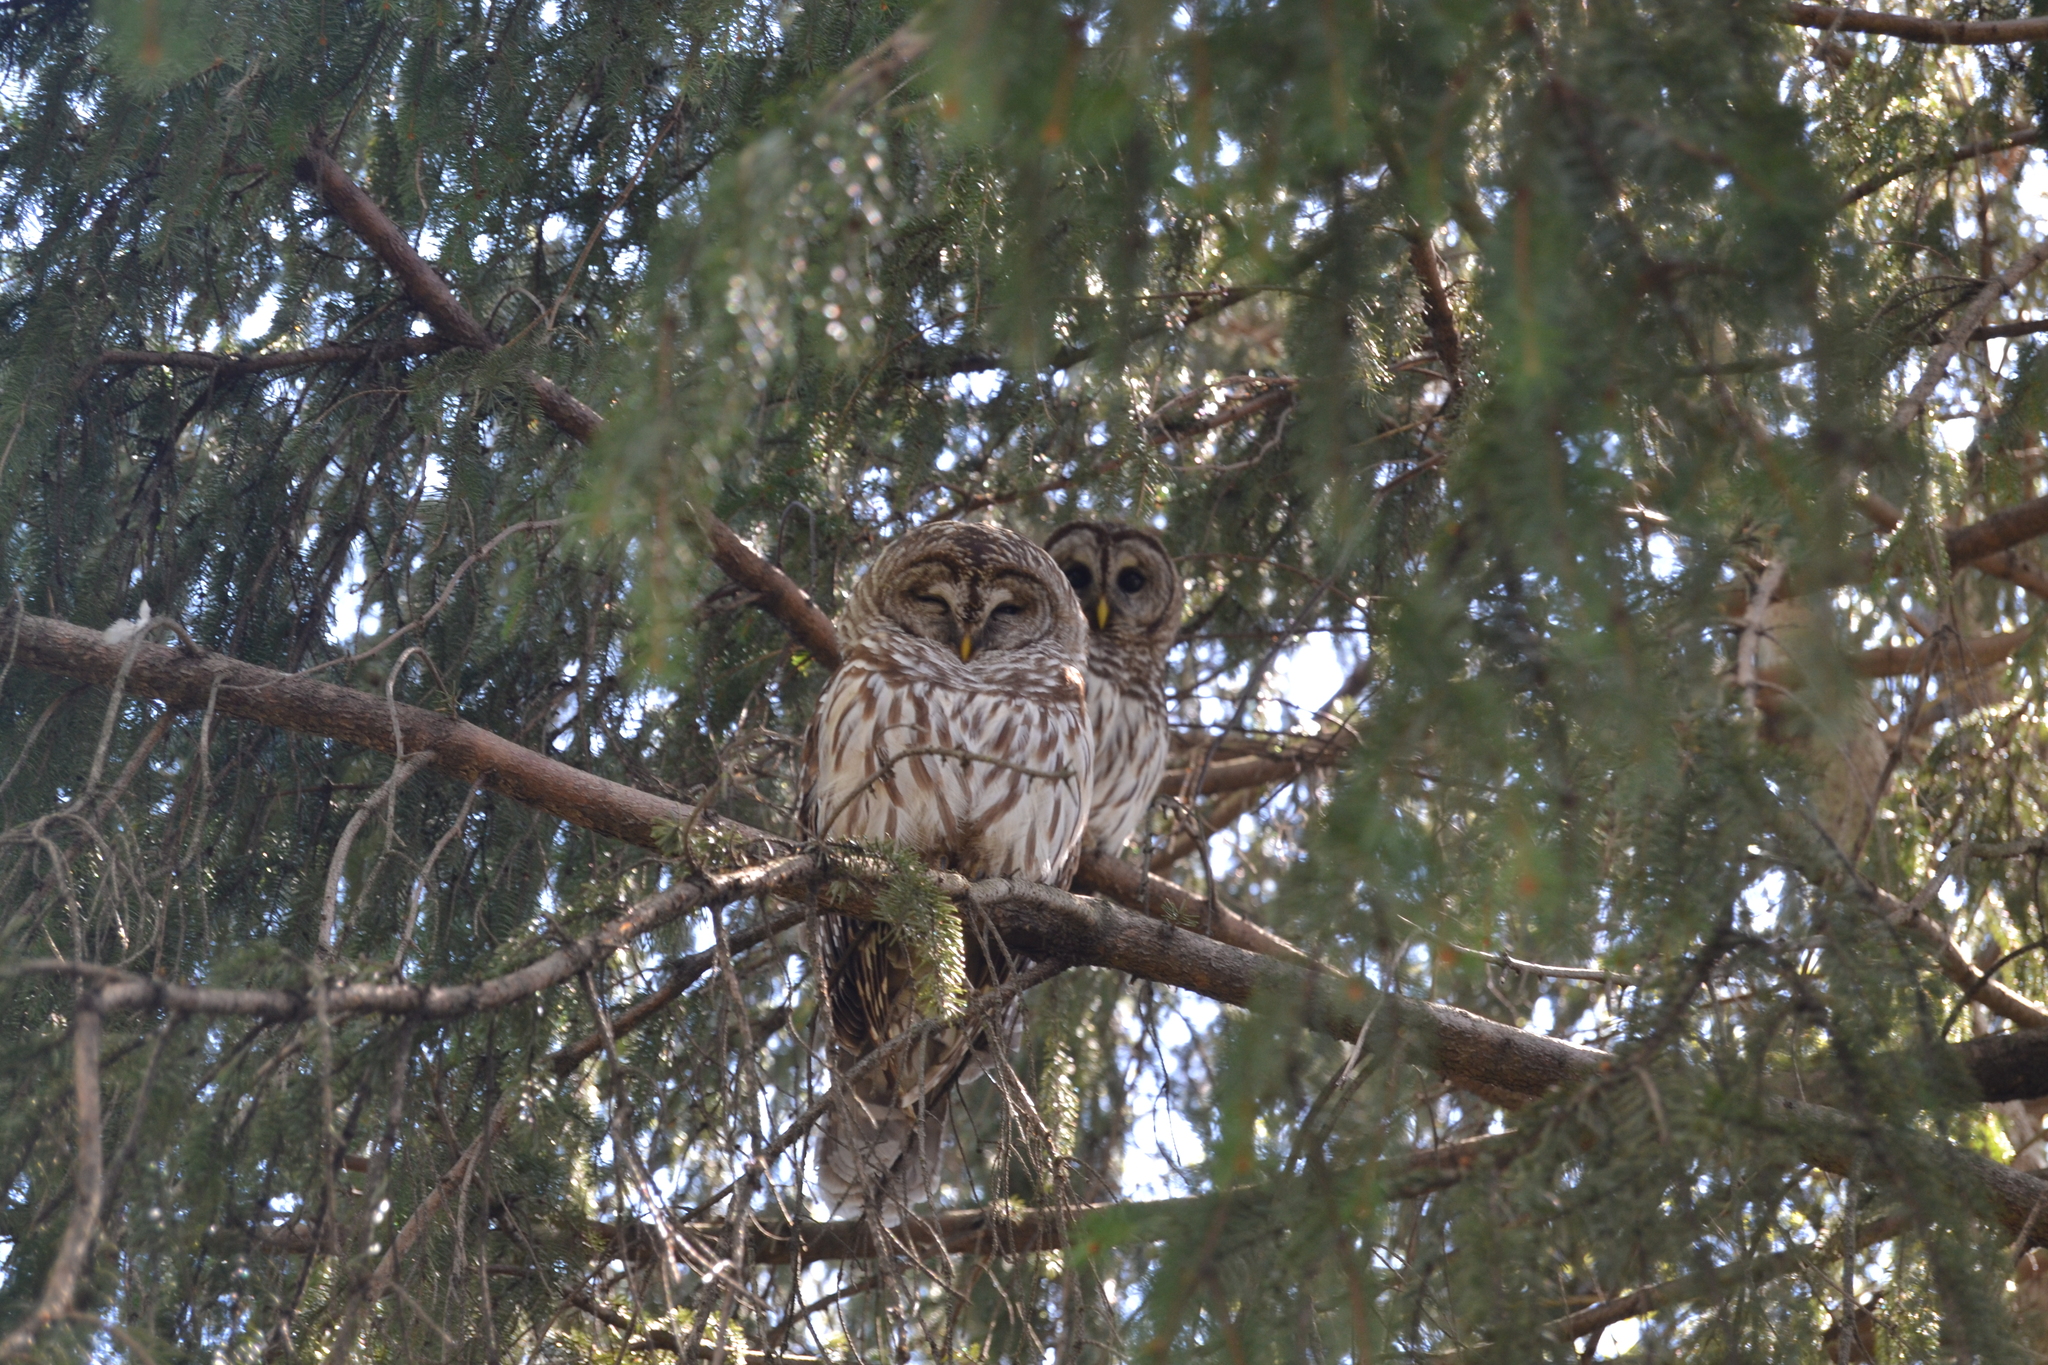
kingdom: Animalia
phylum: Chordata
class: Aves
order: Strigiformes
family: Strigidae
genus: Strix
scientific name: Strix varia
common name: Barred owl
